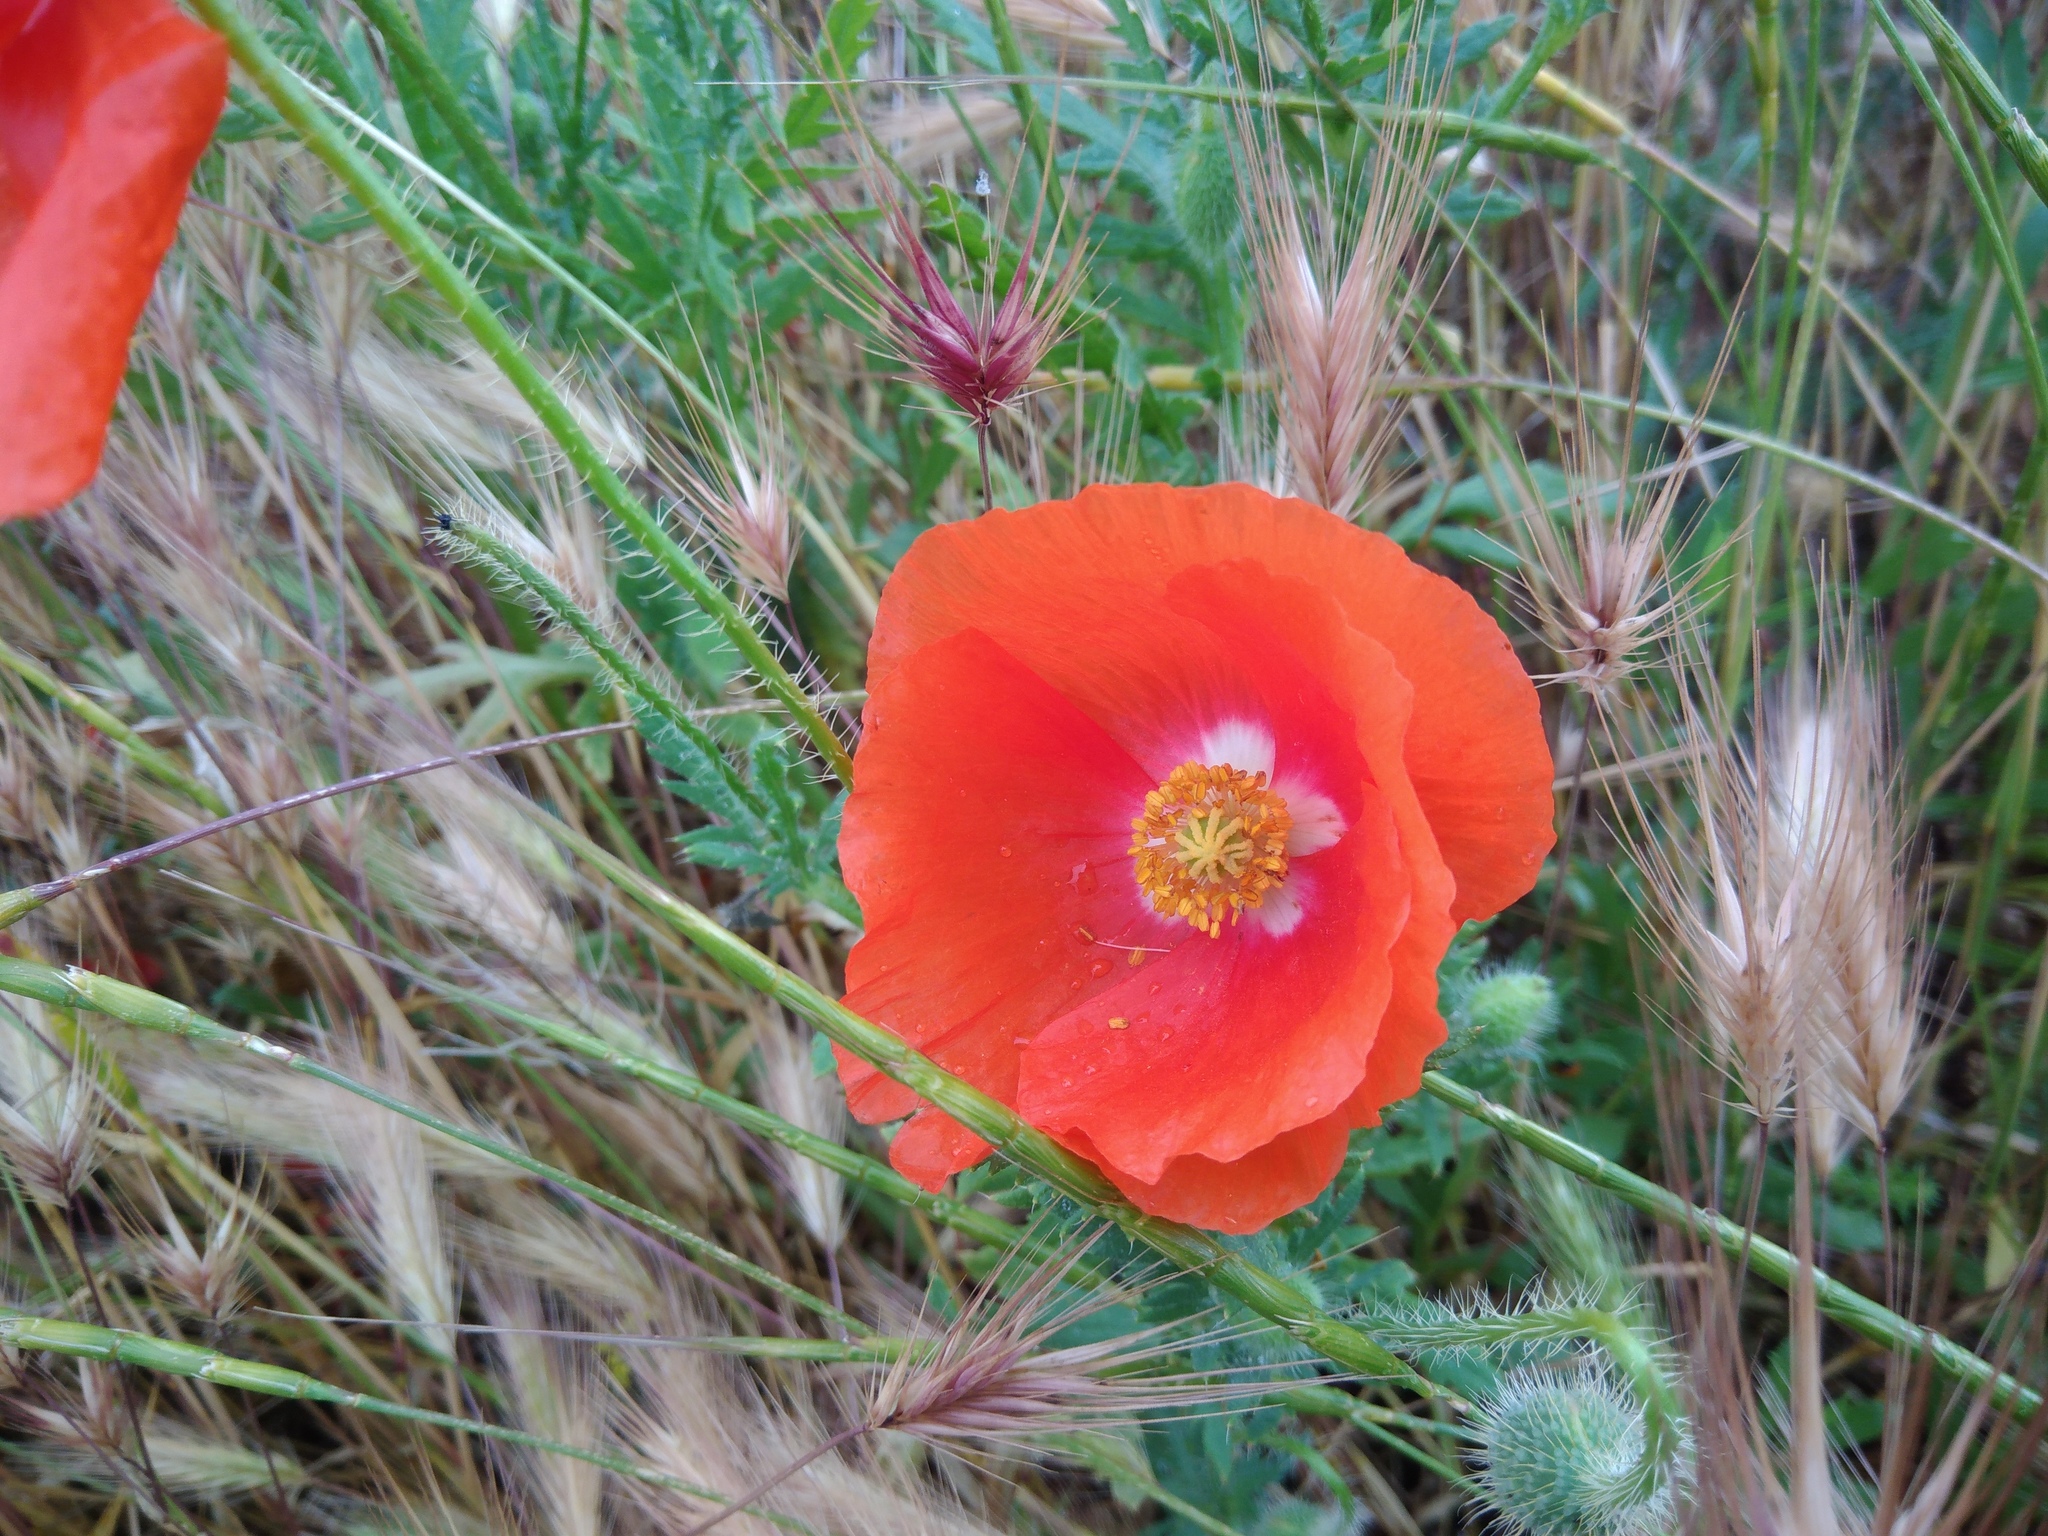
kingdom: Plantae
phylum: Tracheophyta
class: Magnoliopsida
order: Ranunculales
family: Papaveraceae
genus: Papaver
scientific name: Papaver rhoeas
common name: Corn poppy
